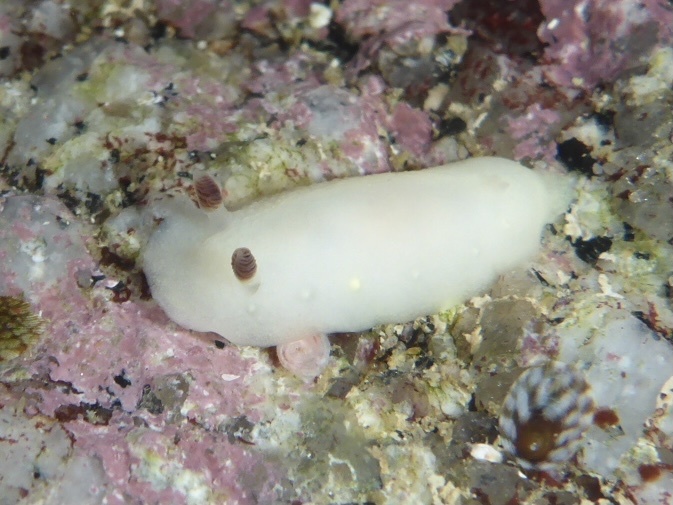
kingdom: Animalia
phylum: Mollusca
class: Gastropoda
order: Nudibranchia
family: Cadlinidae
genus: Cadlina
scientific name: Cadlina flavomaculata
